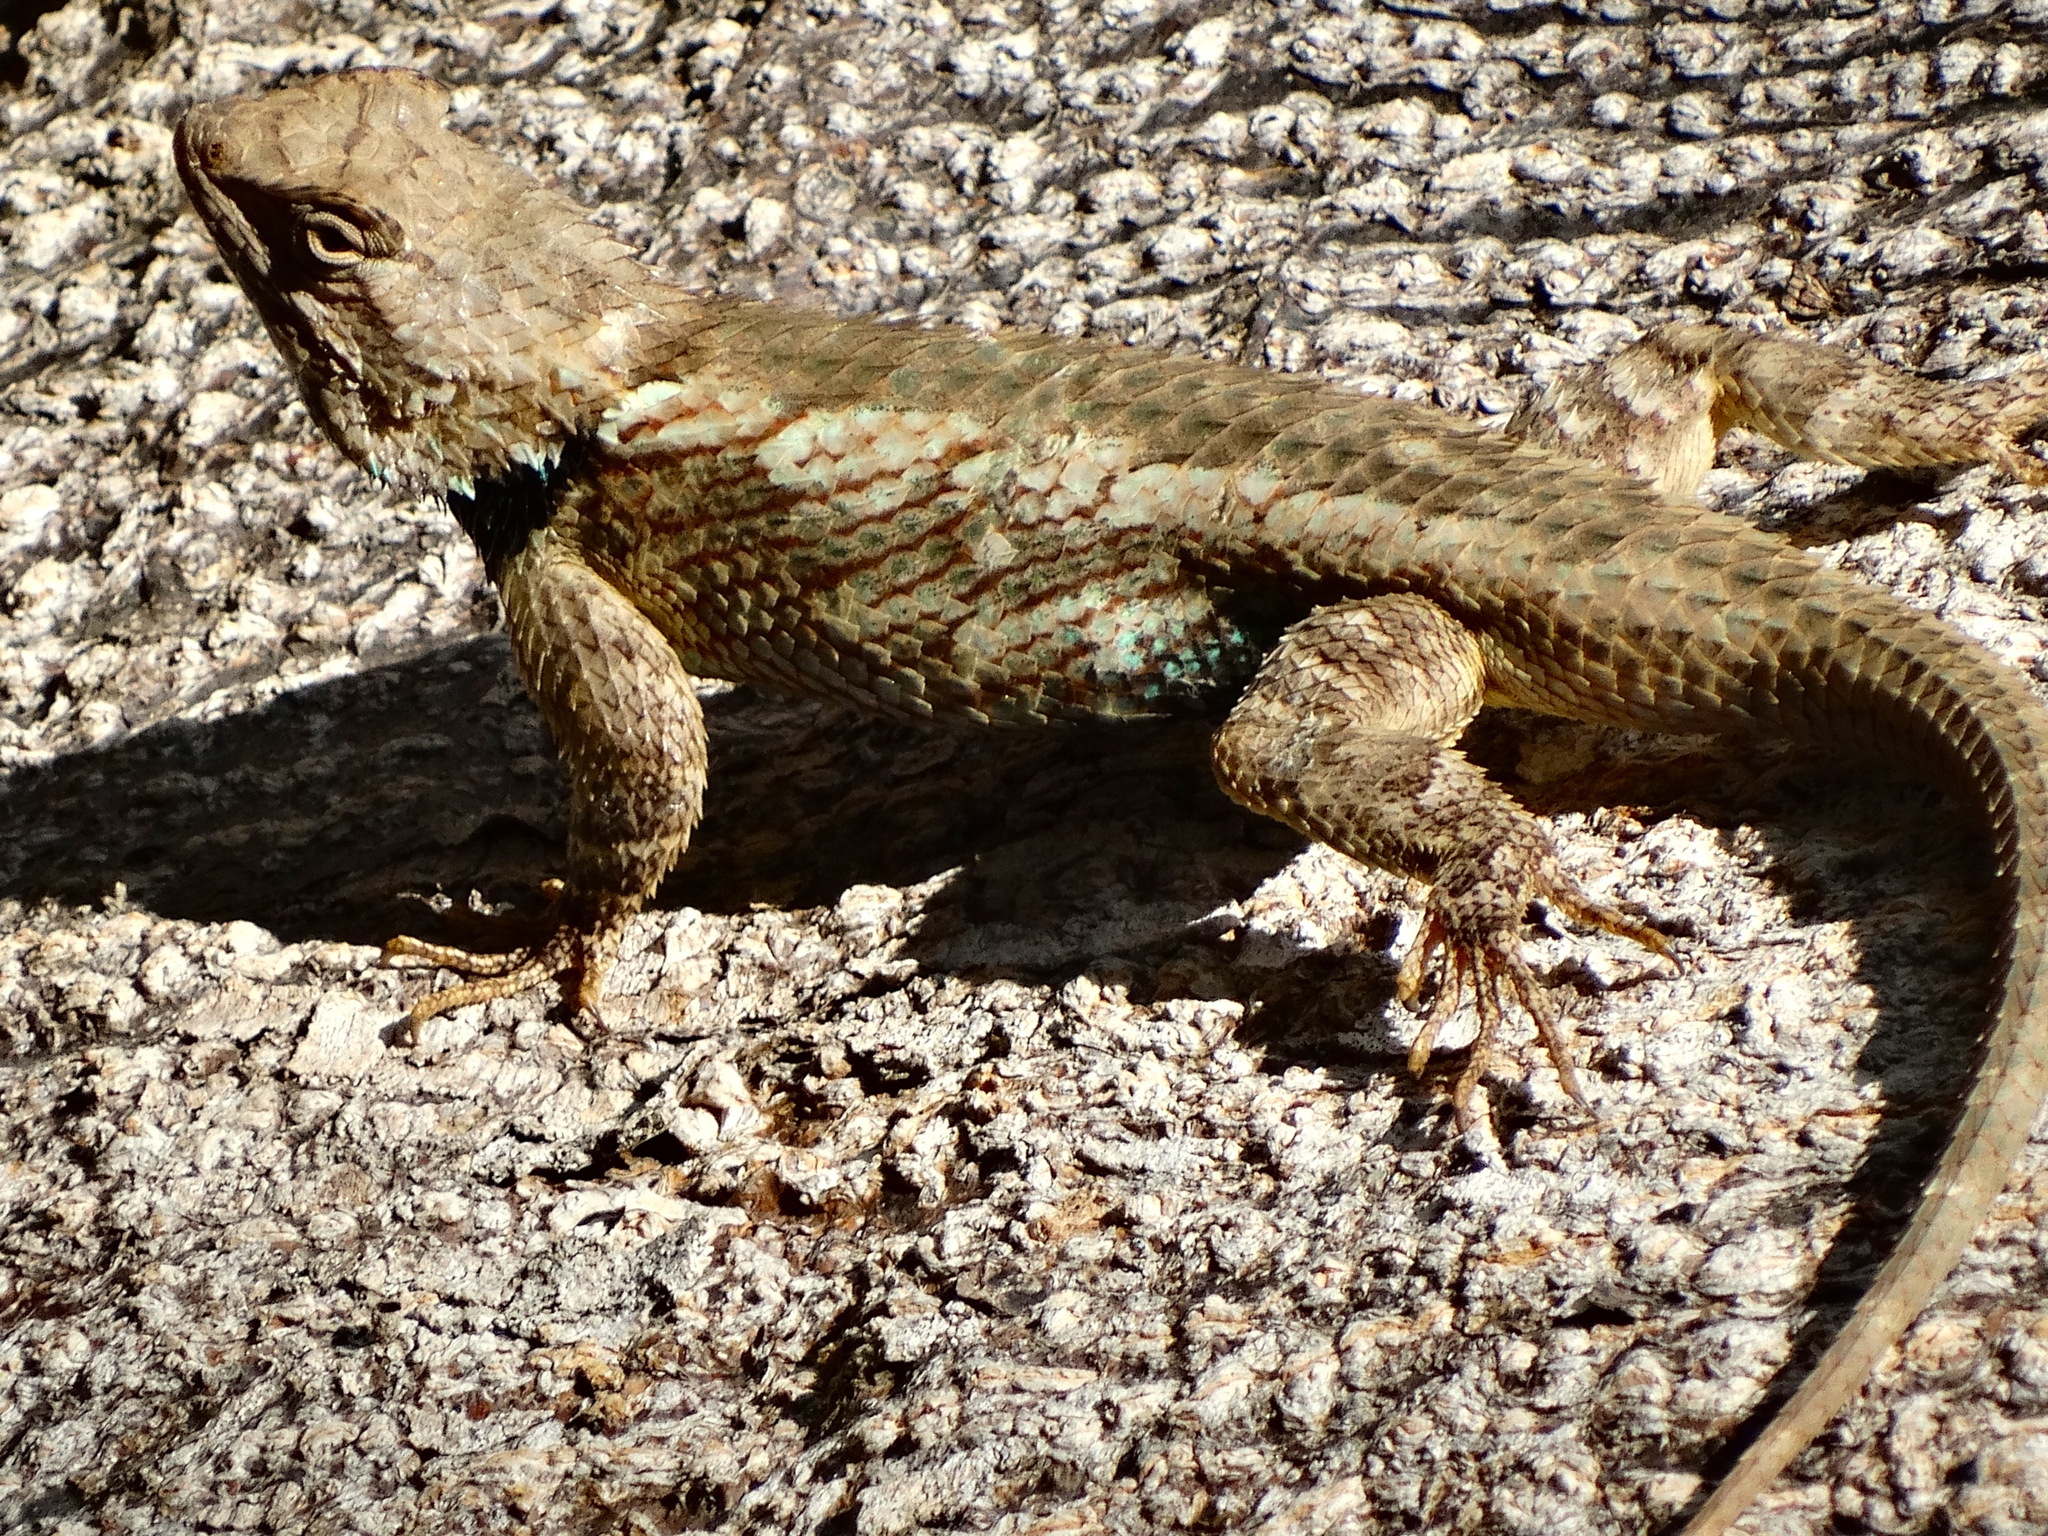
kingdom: Animalia
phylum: Chordata
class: Squamata
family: Phrynosomatidae
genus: Sceloporus
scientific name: Sceloporus clarkii
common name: Clark's spiny lizard
